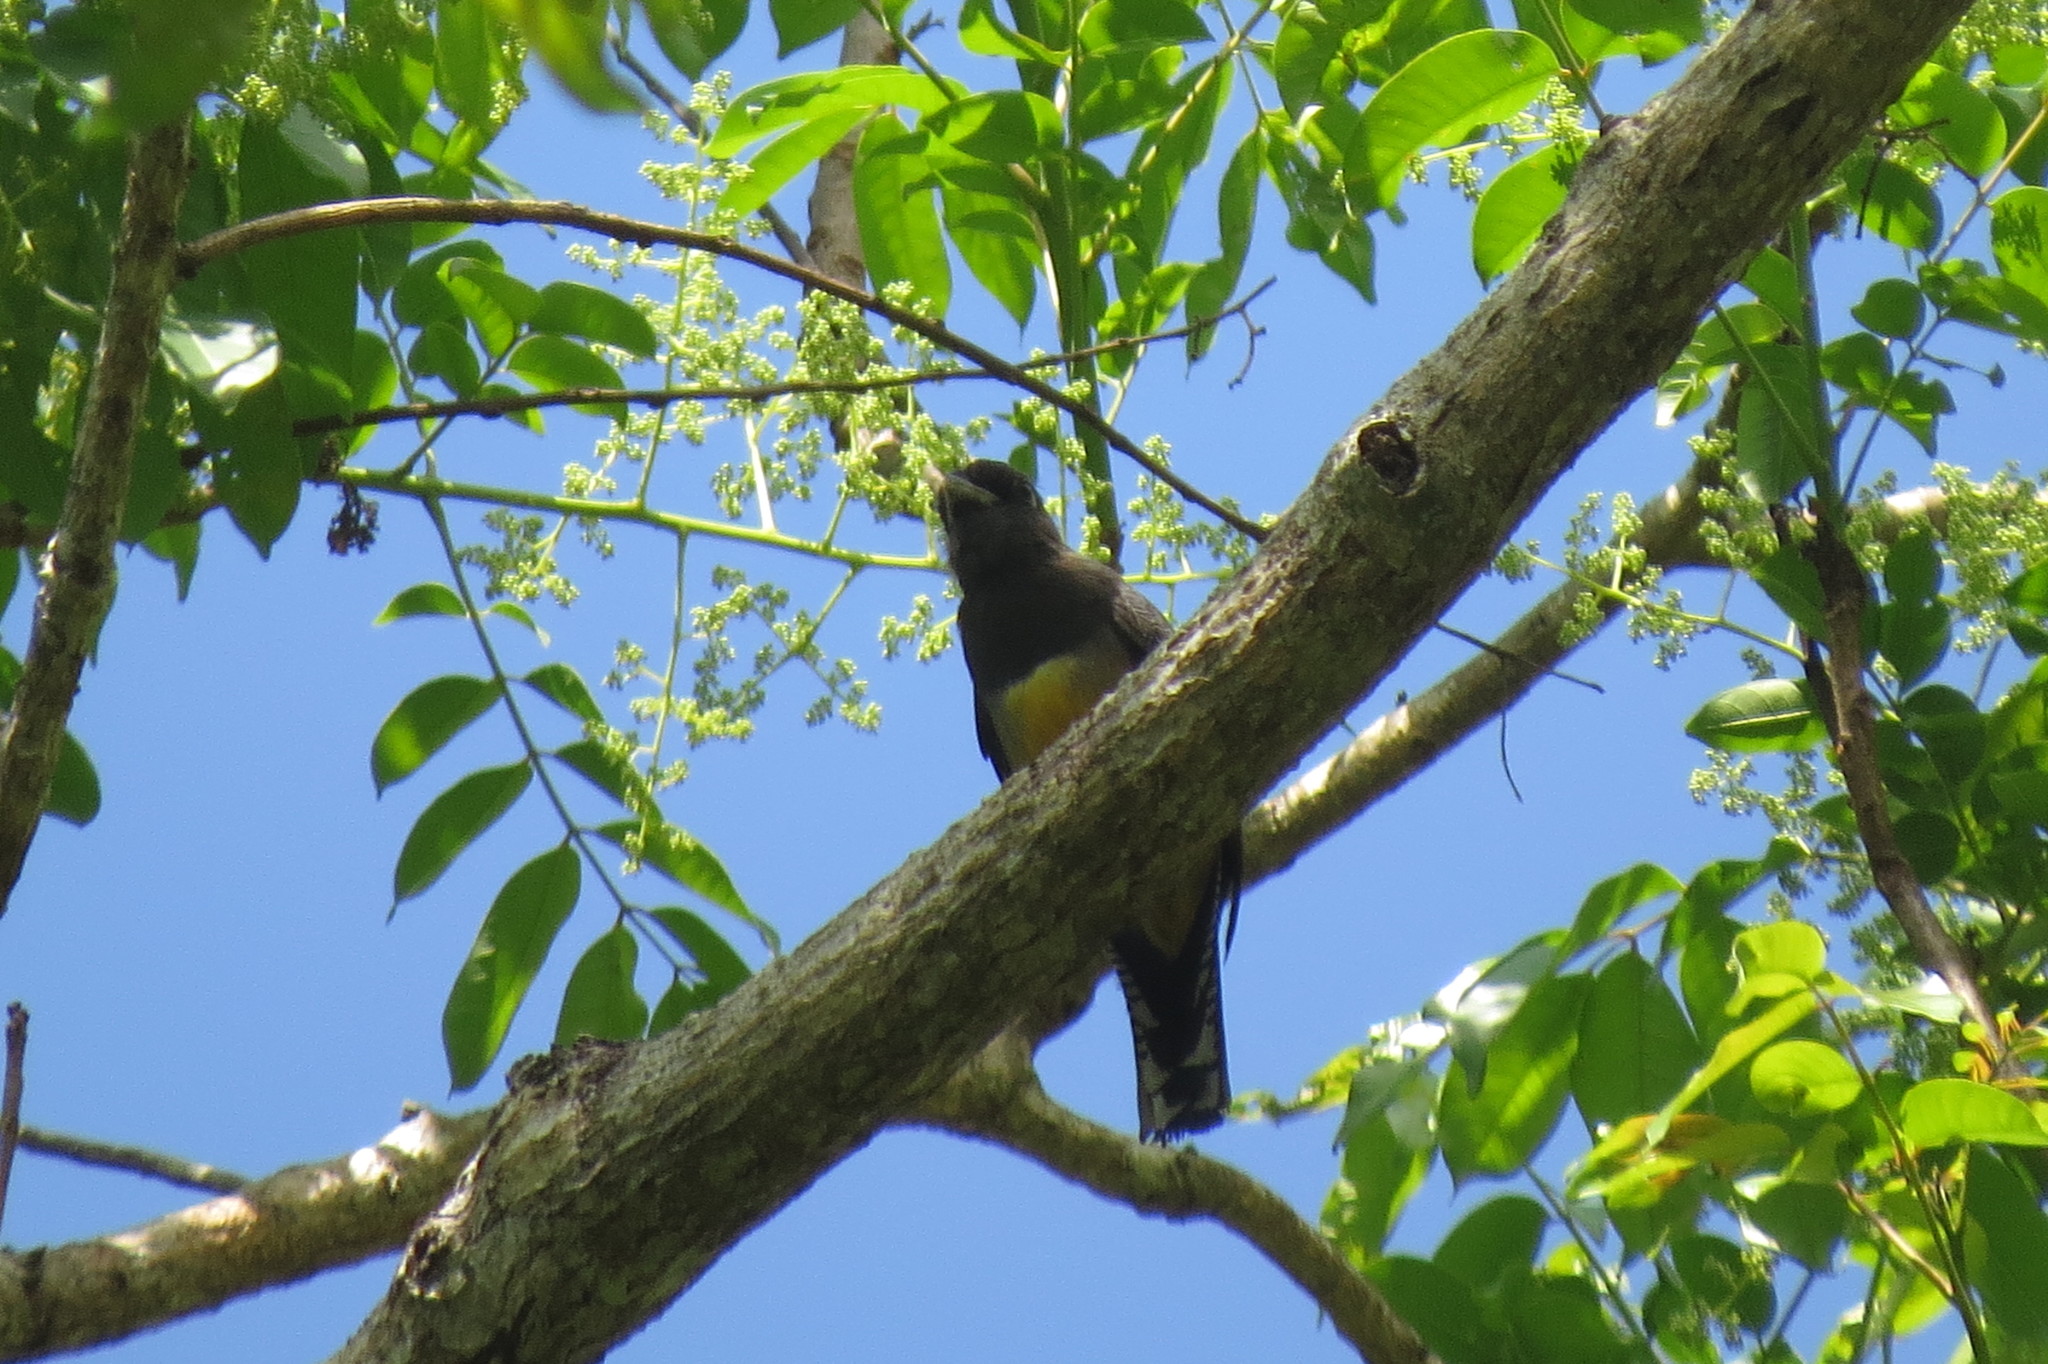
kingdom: Animalia
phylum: Chordata
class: Aves
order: Trogoniformes
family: Trogonidae
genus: Trogon
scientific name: Trogon caligatus
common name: Gartered trogon
